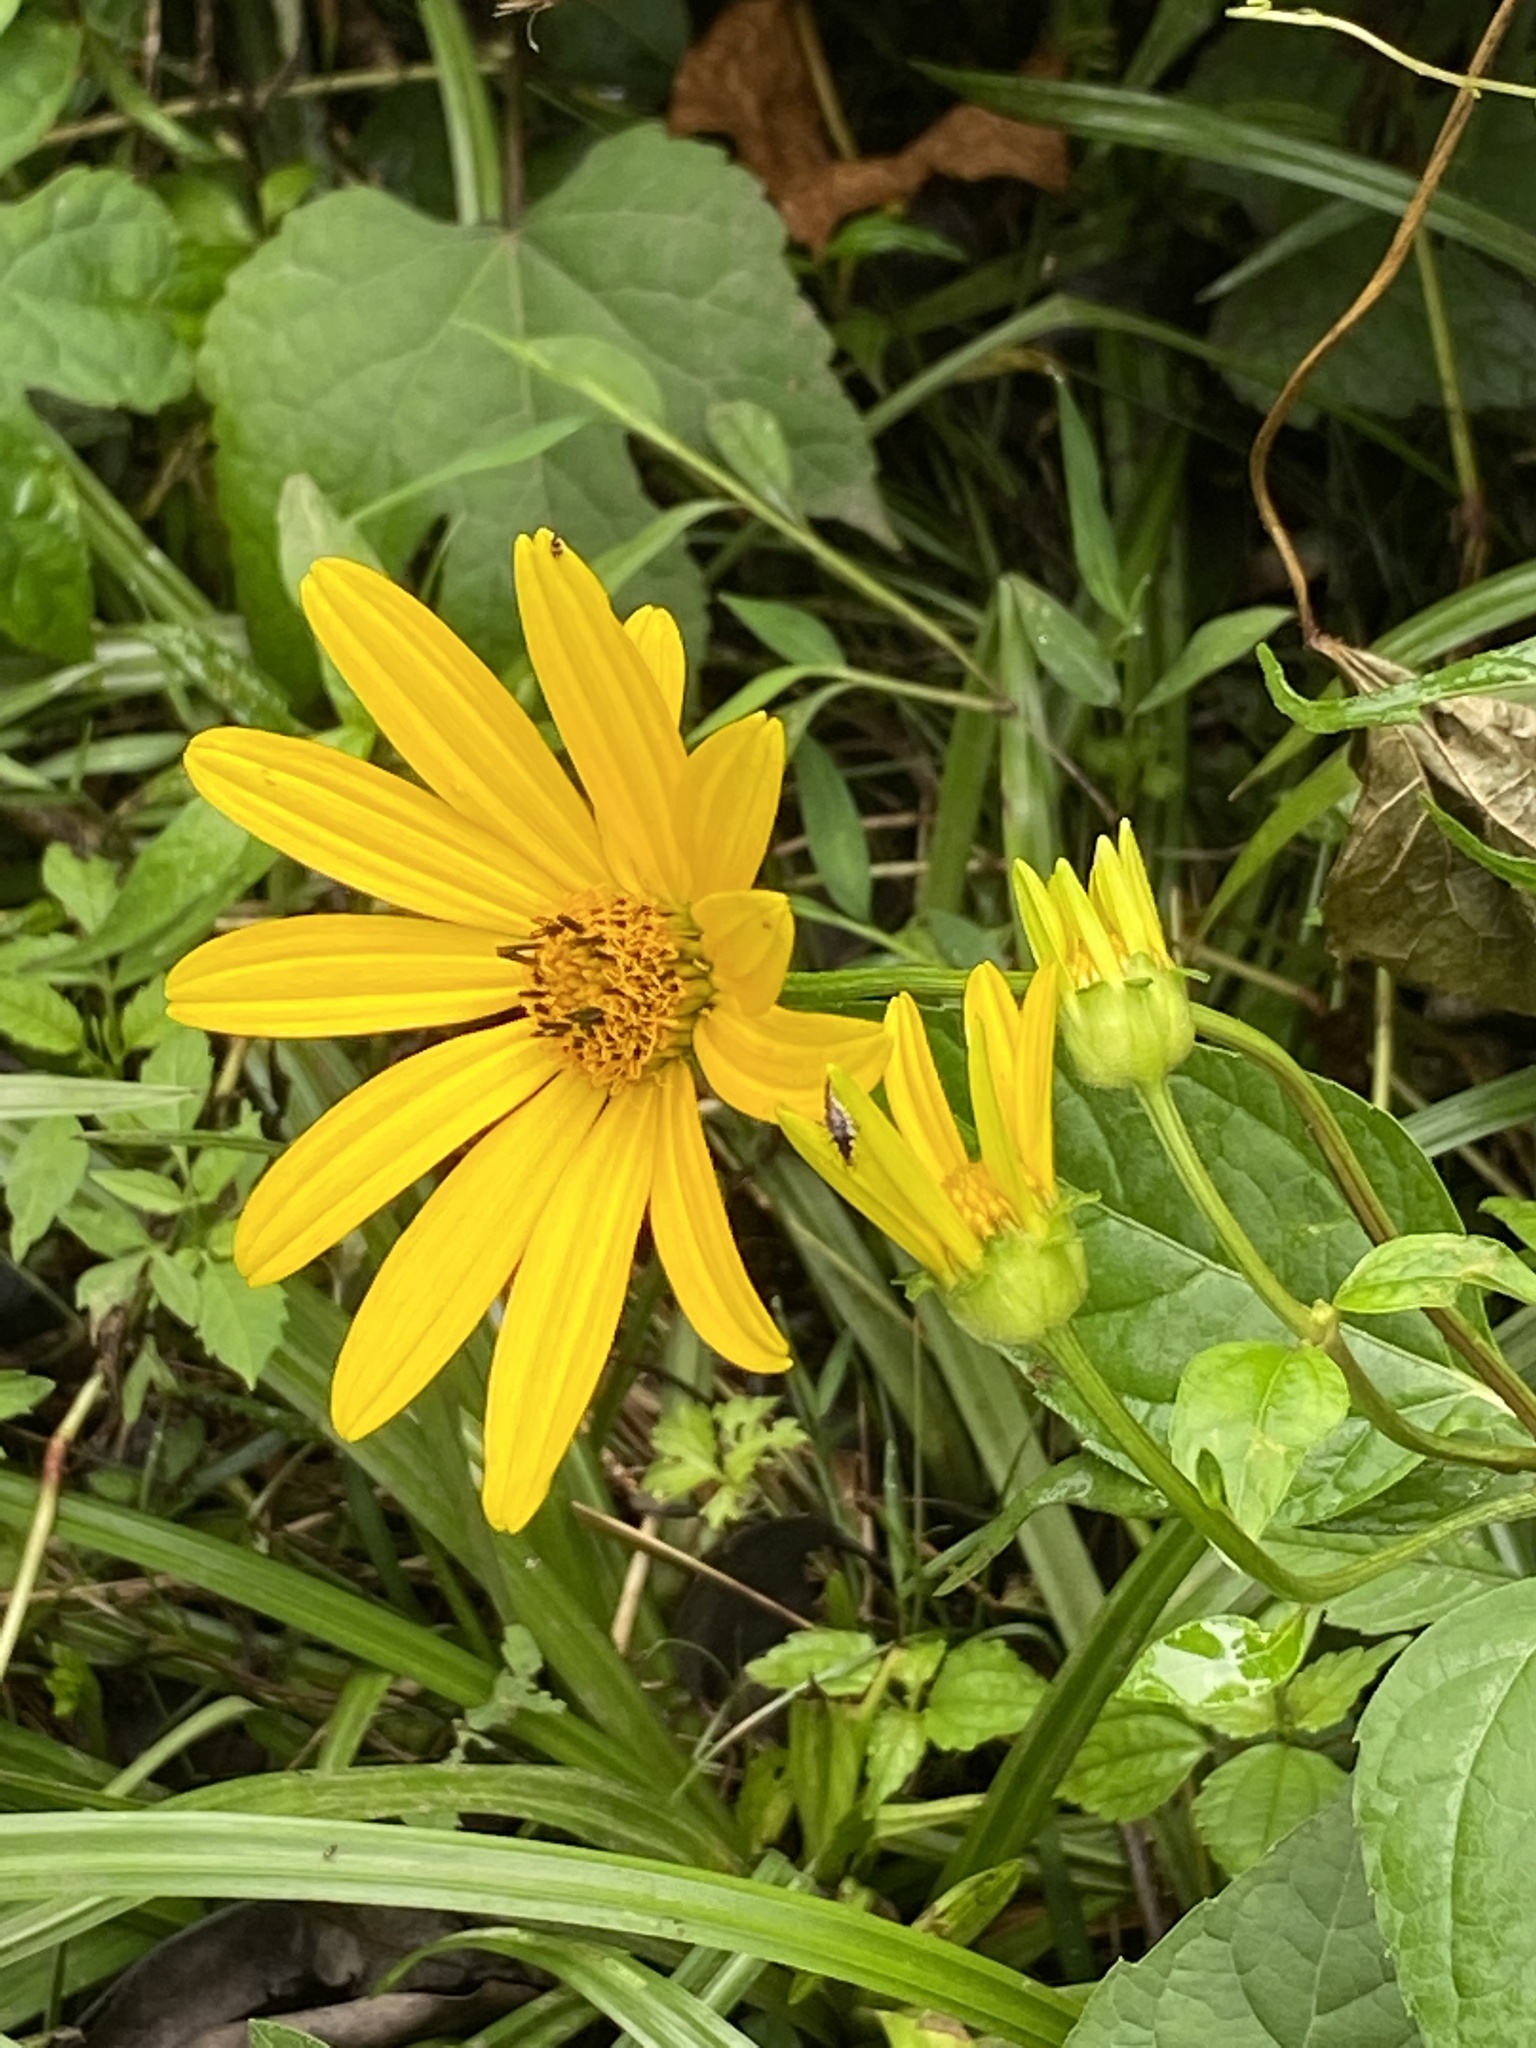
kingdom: Plantae
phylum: Tracheophyta
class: Magnoliopsida
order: Asterales
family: Asteraceae
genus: Heliopsis
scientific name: Heliopsis helianthoides
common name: False sunflower
